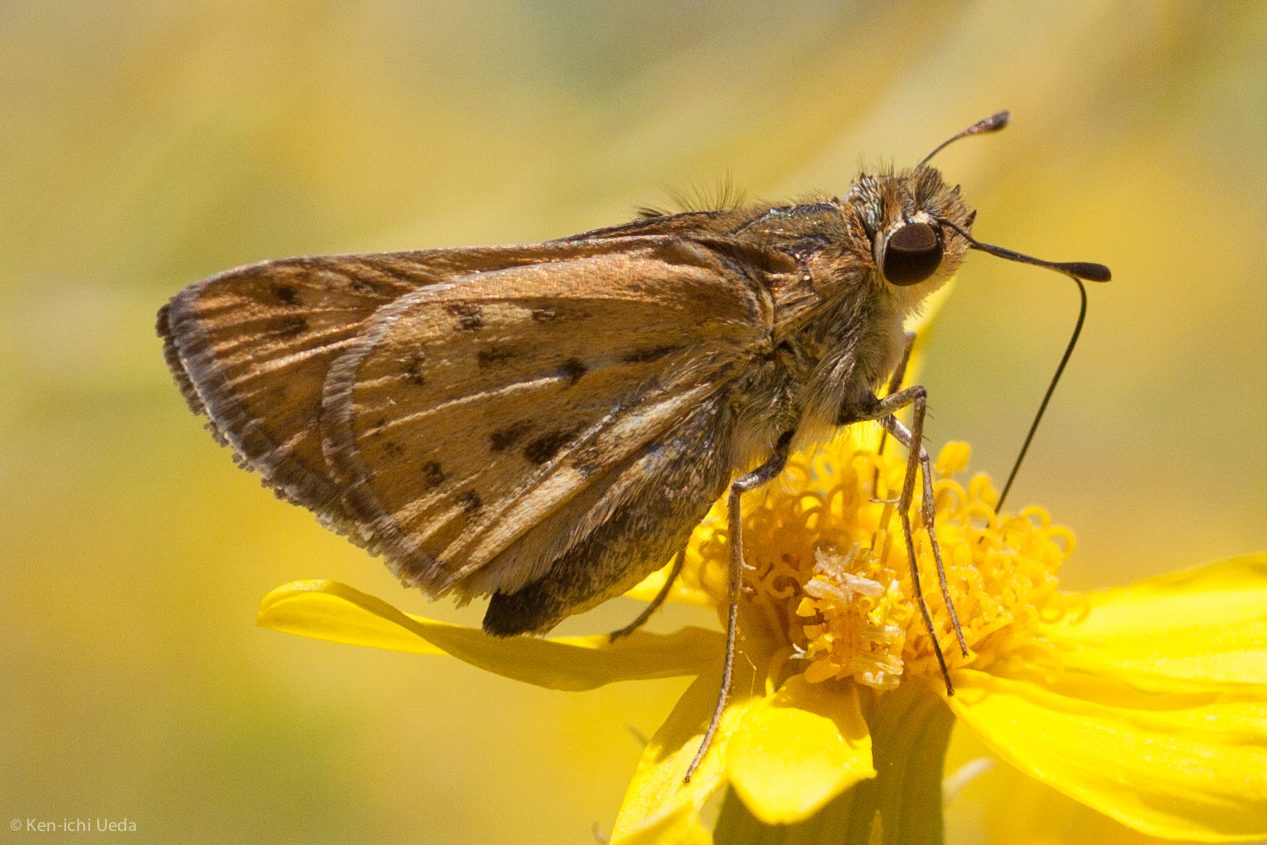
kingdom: Animalia
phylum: Arthropoda
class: Insecta
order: Lepidoptera
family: Hesperiidae
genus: Hylephila
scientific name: Hylephila phyleus
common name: Fiery skipper
